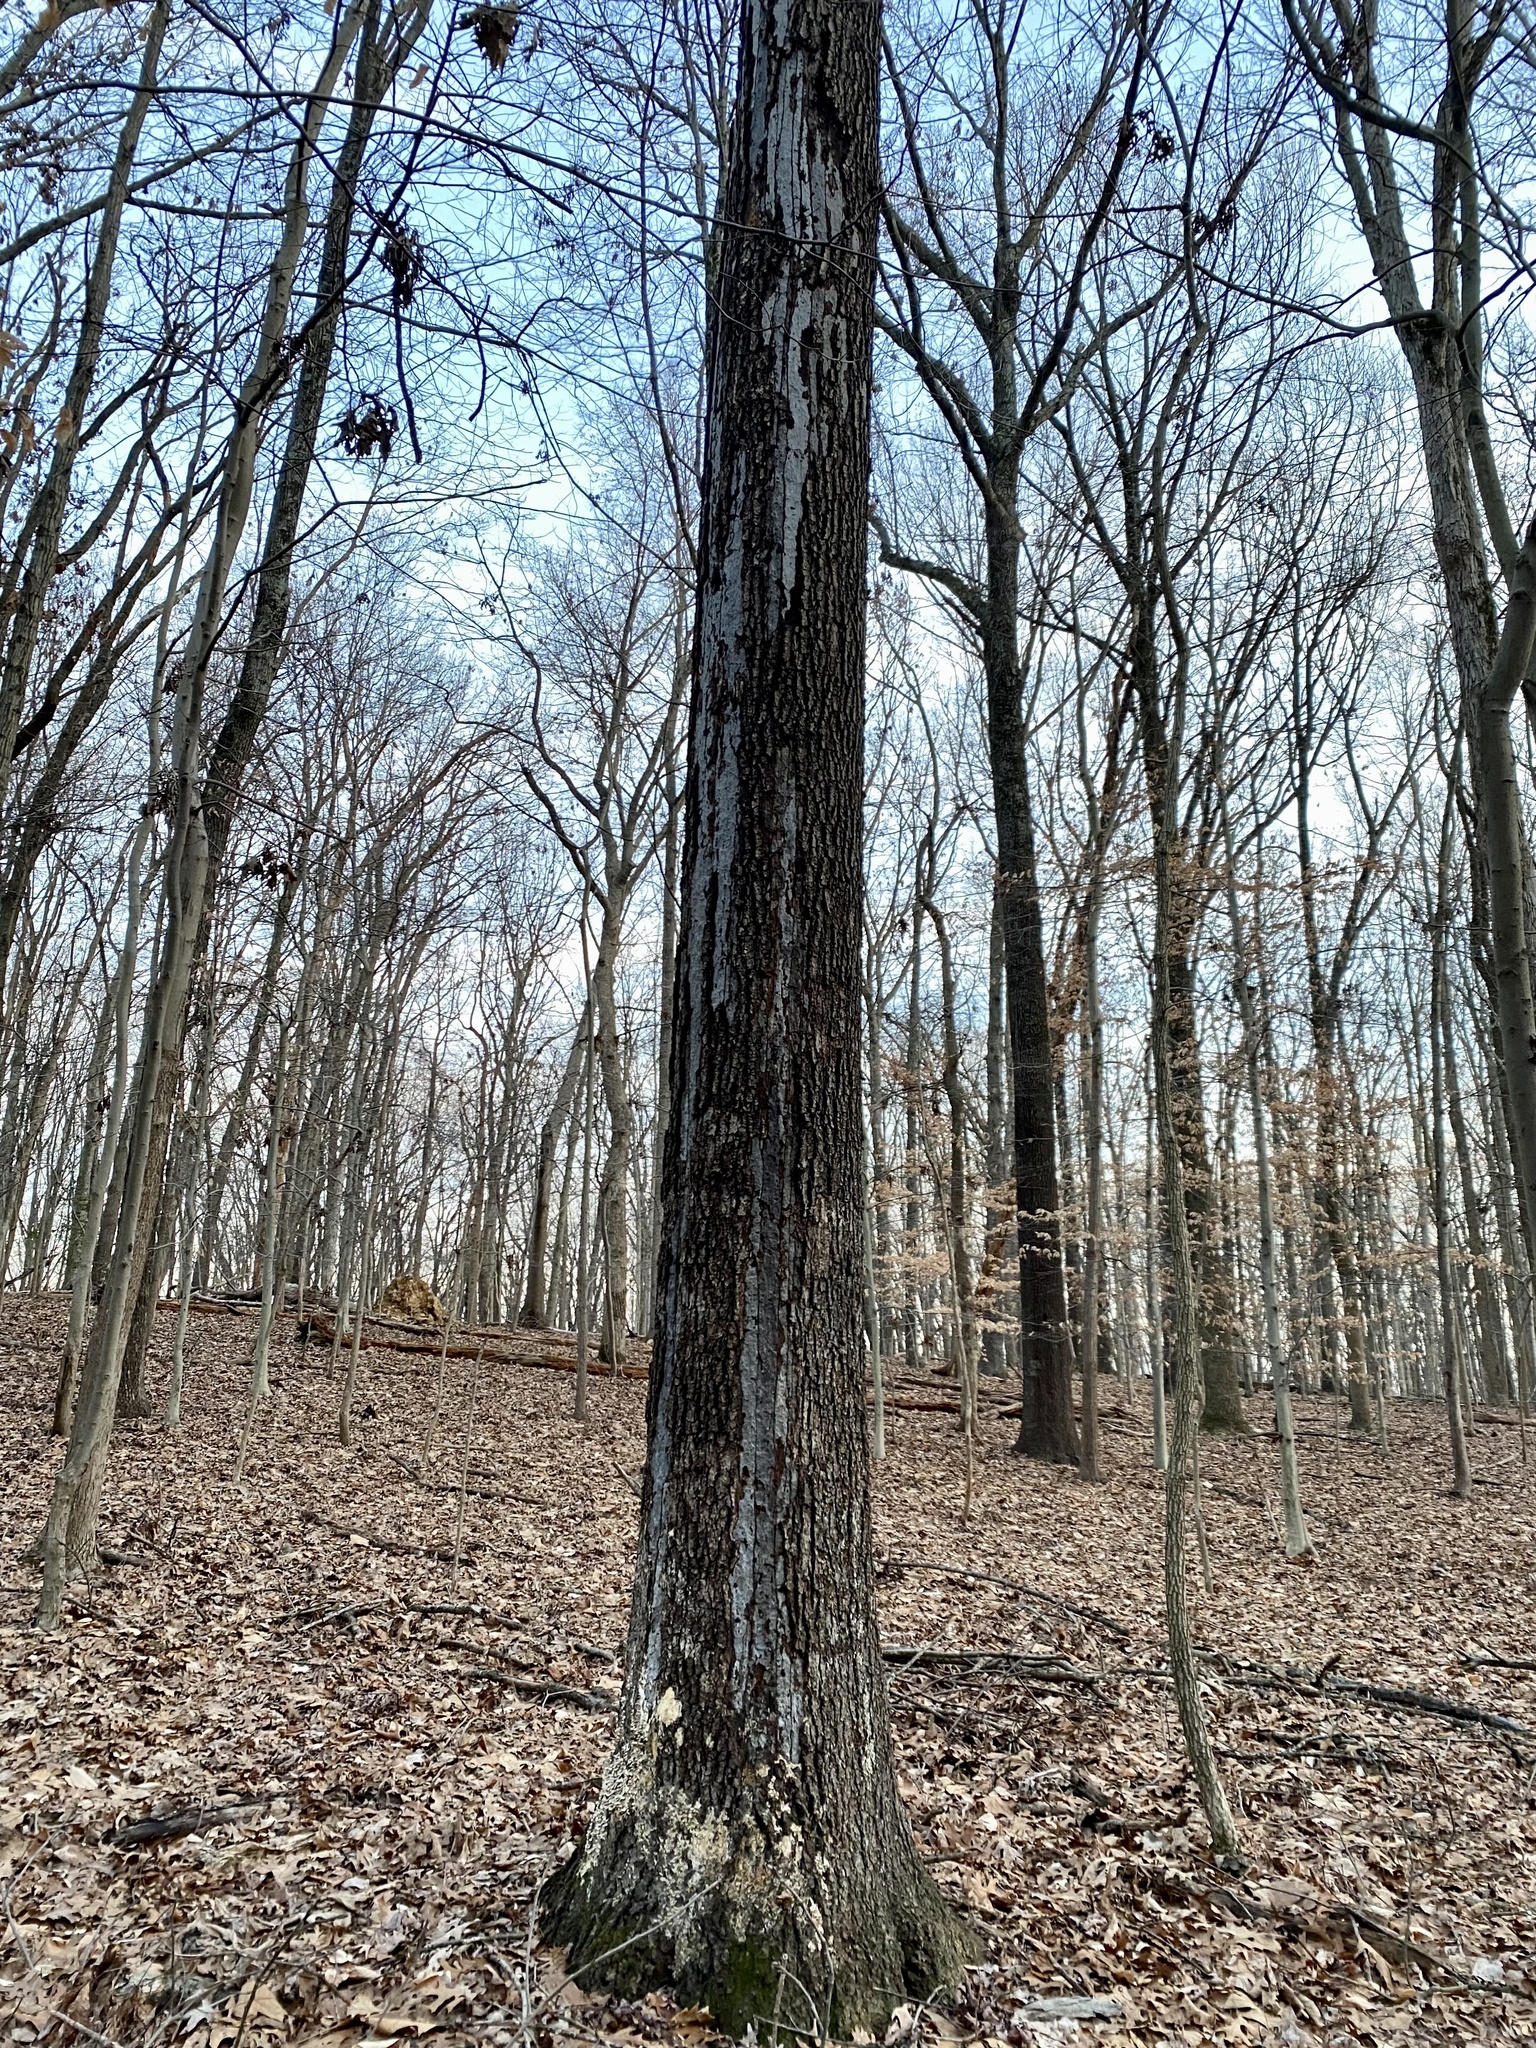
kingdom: Fungi
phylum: Ascomycota
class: Sordariomycetes
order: Xylariales
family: Graphostromataceae
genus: Biscogniauxia
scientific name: Biscogniauxia atropunctata
